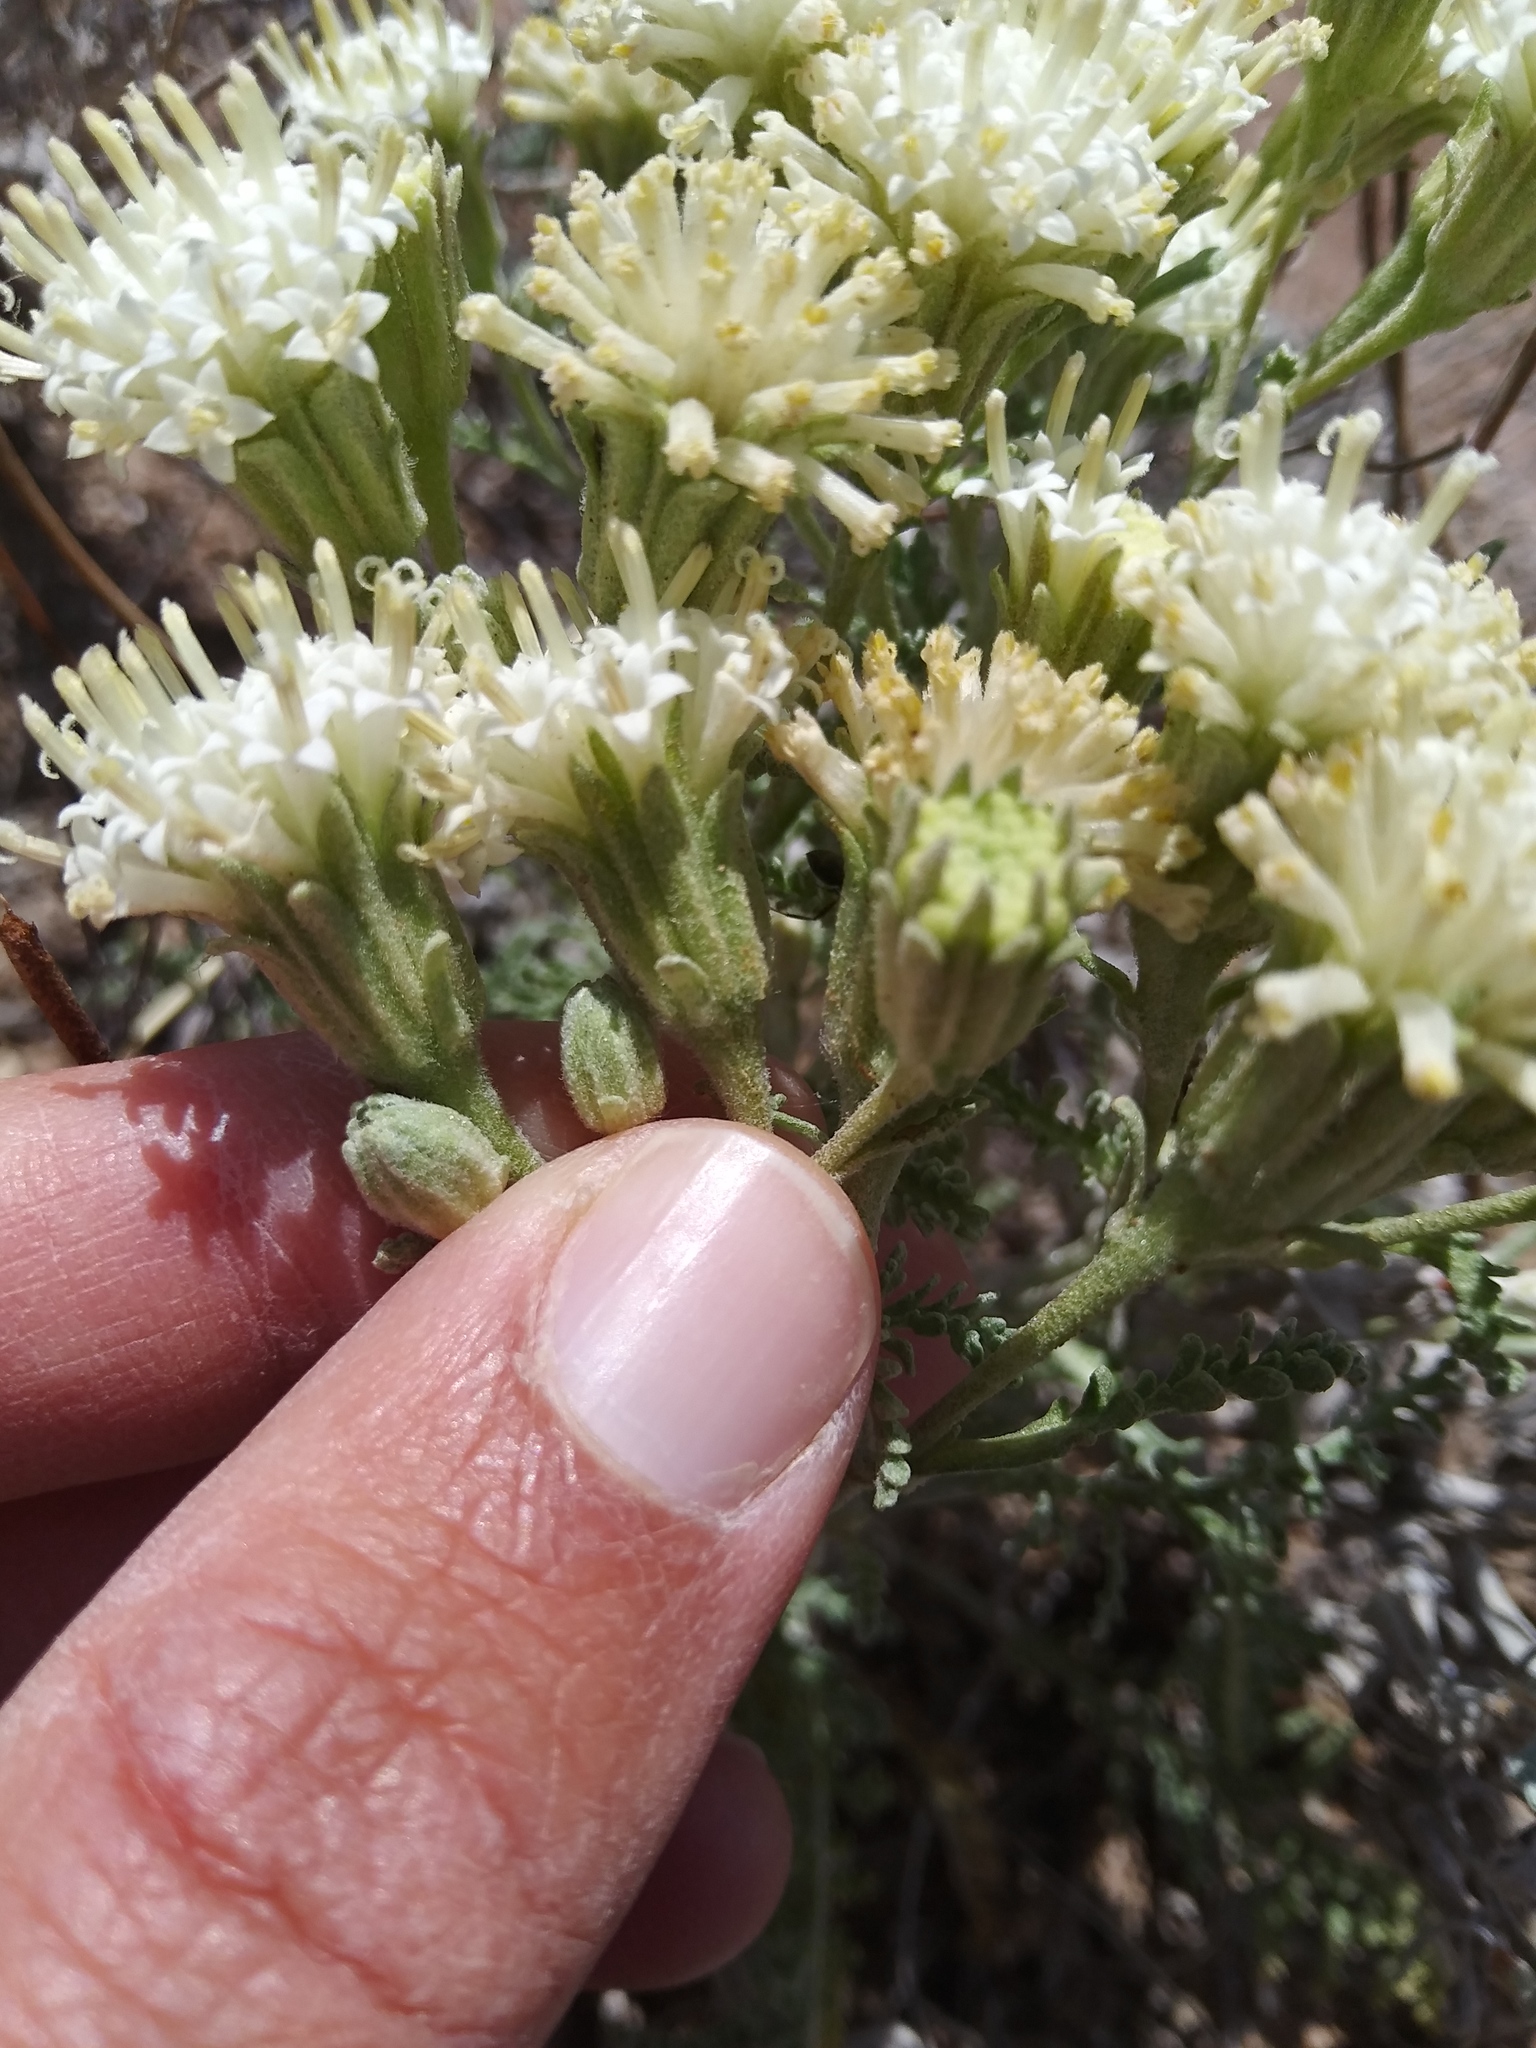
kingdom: Plantae
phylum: Tracheophyta
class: Magnoliopsida
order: Asterales
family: Asteraceae
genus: Chaenactis
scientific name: Chaenactis douglasii
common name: Hoary pincushion
